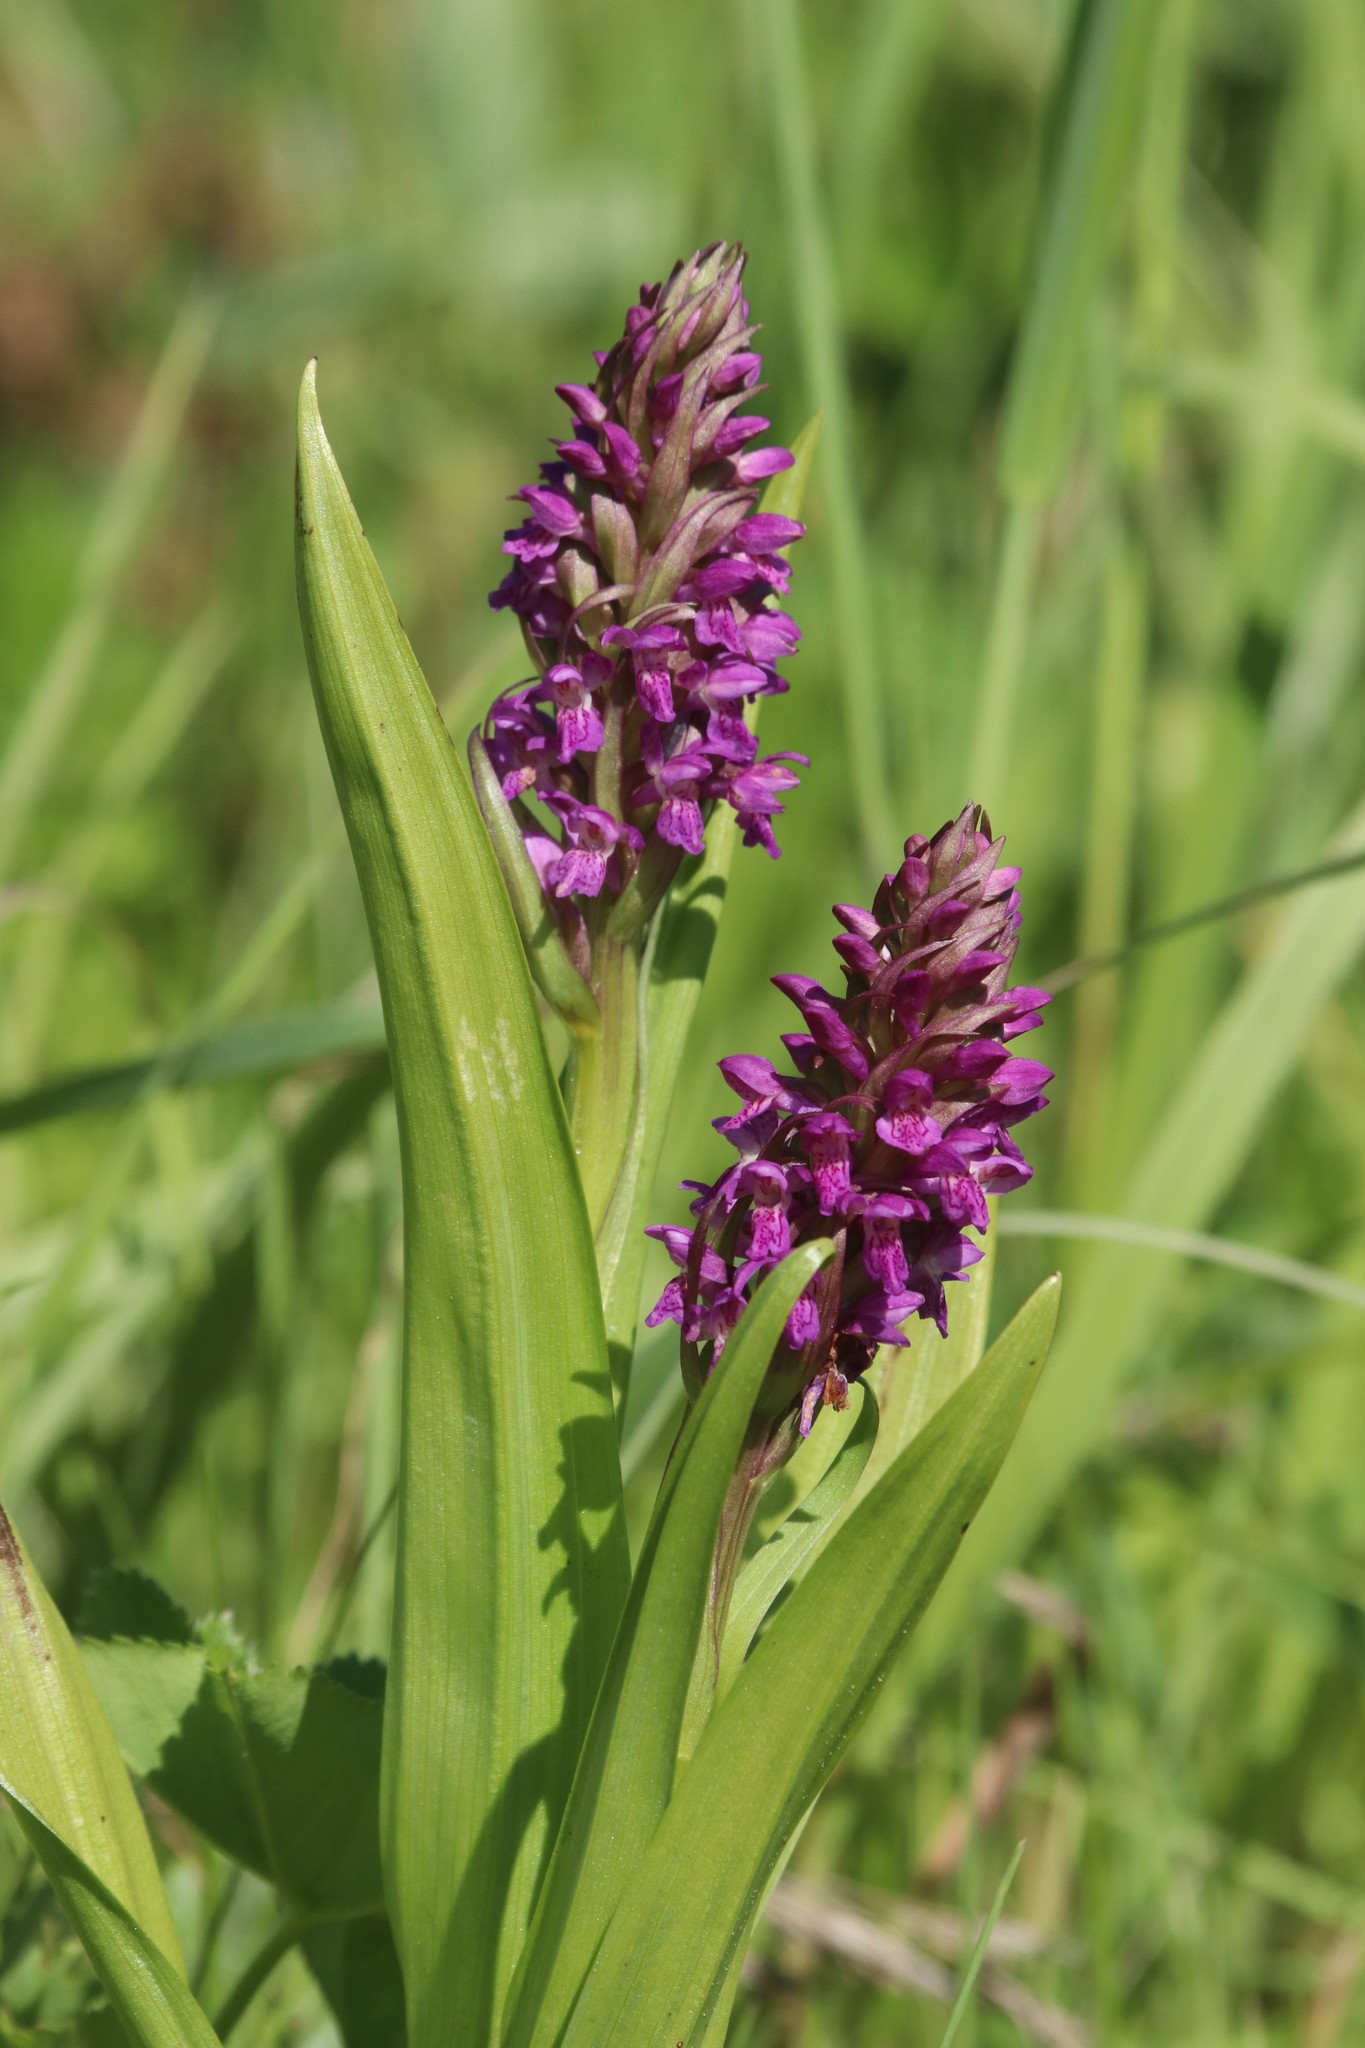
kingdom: Plantae
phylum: Tracheophyta
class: Liliopsida
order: Asparagales
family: Orchidaceae
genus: Dactylorhiza
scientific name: Dactylorhiza incarnata
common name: Early marsh-orchid
